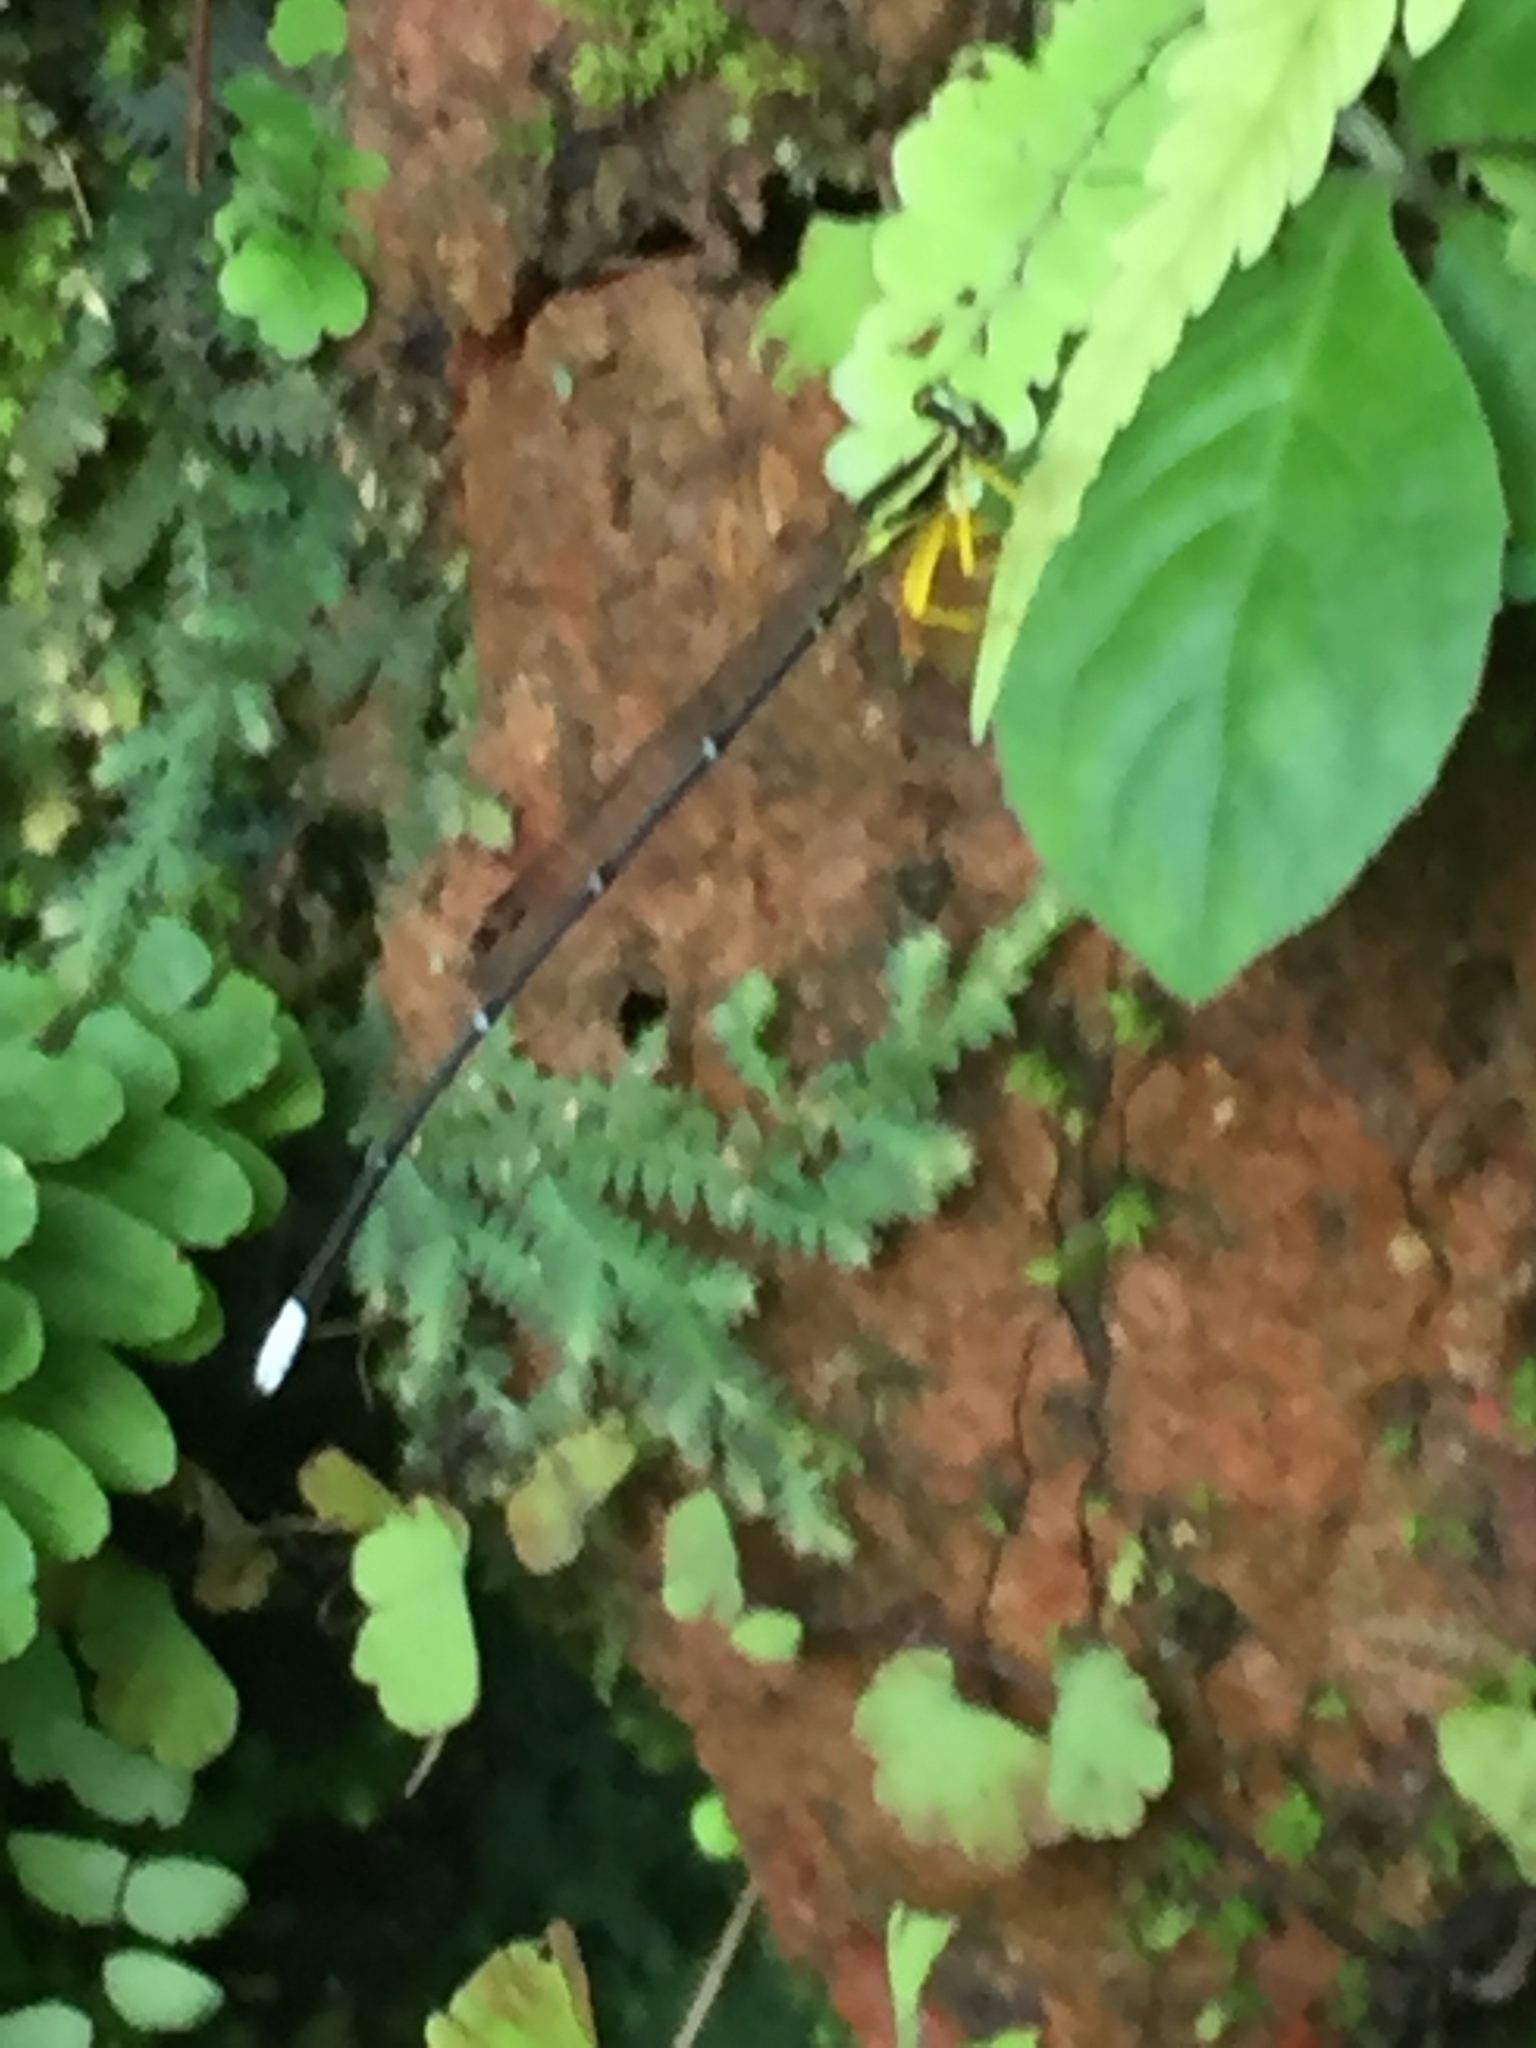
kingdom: Animalia
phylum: Arthropoda
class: Insecta
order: Odonata
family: Platycnemididae
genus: Copera
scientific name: Copera marginipes
